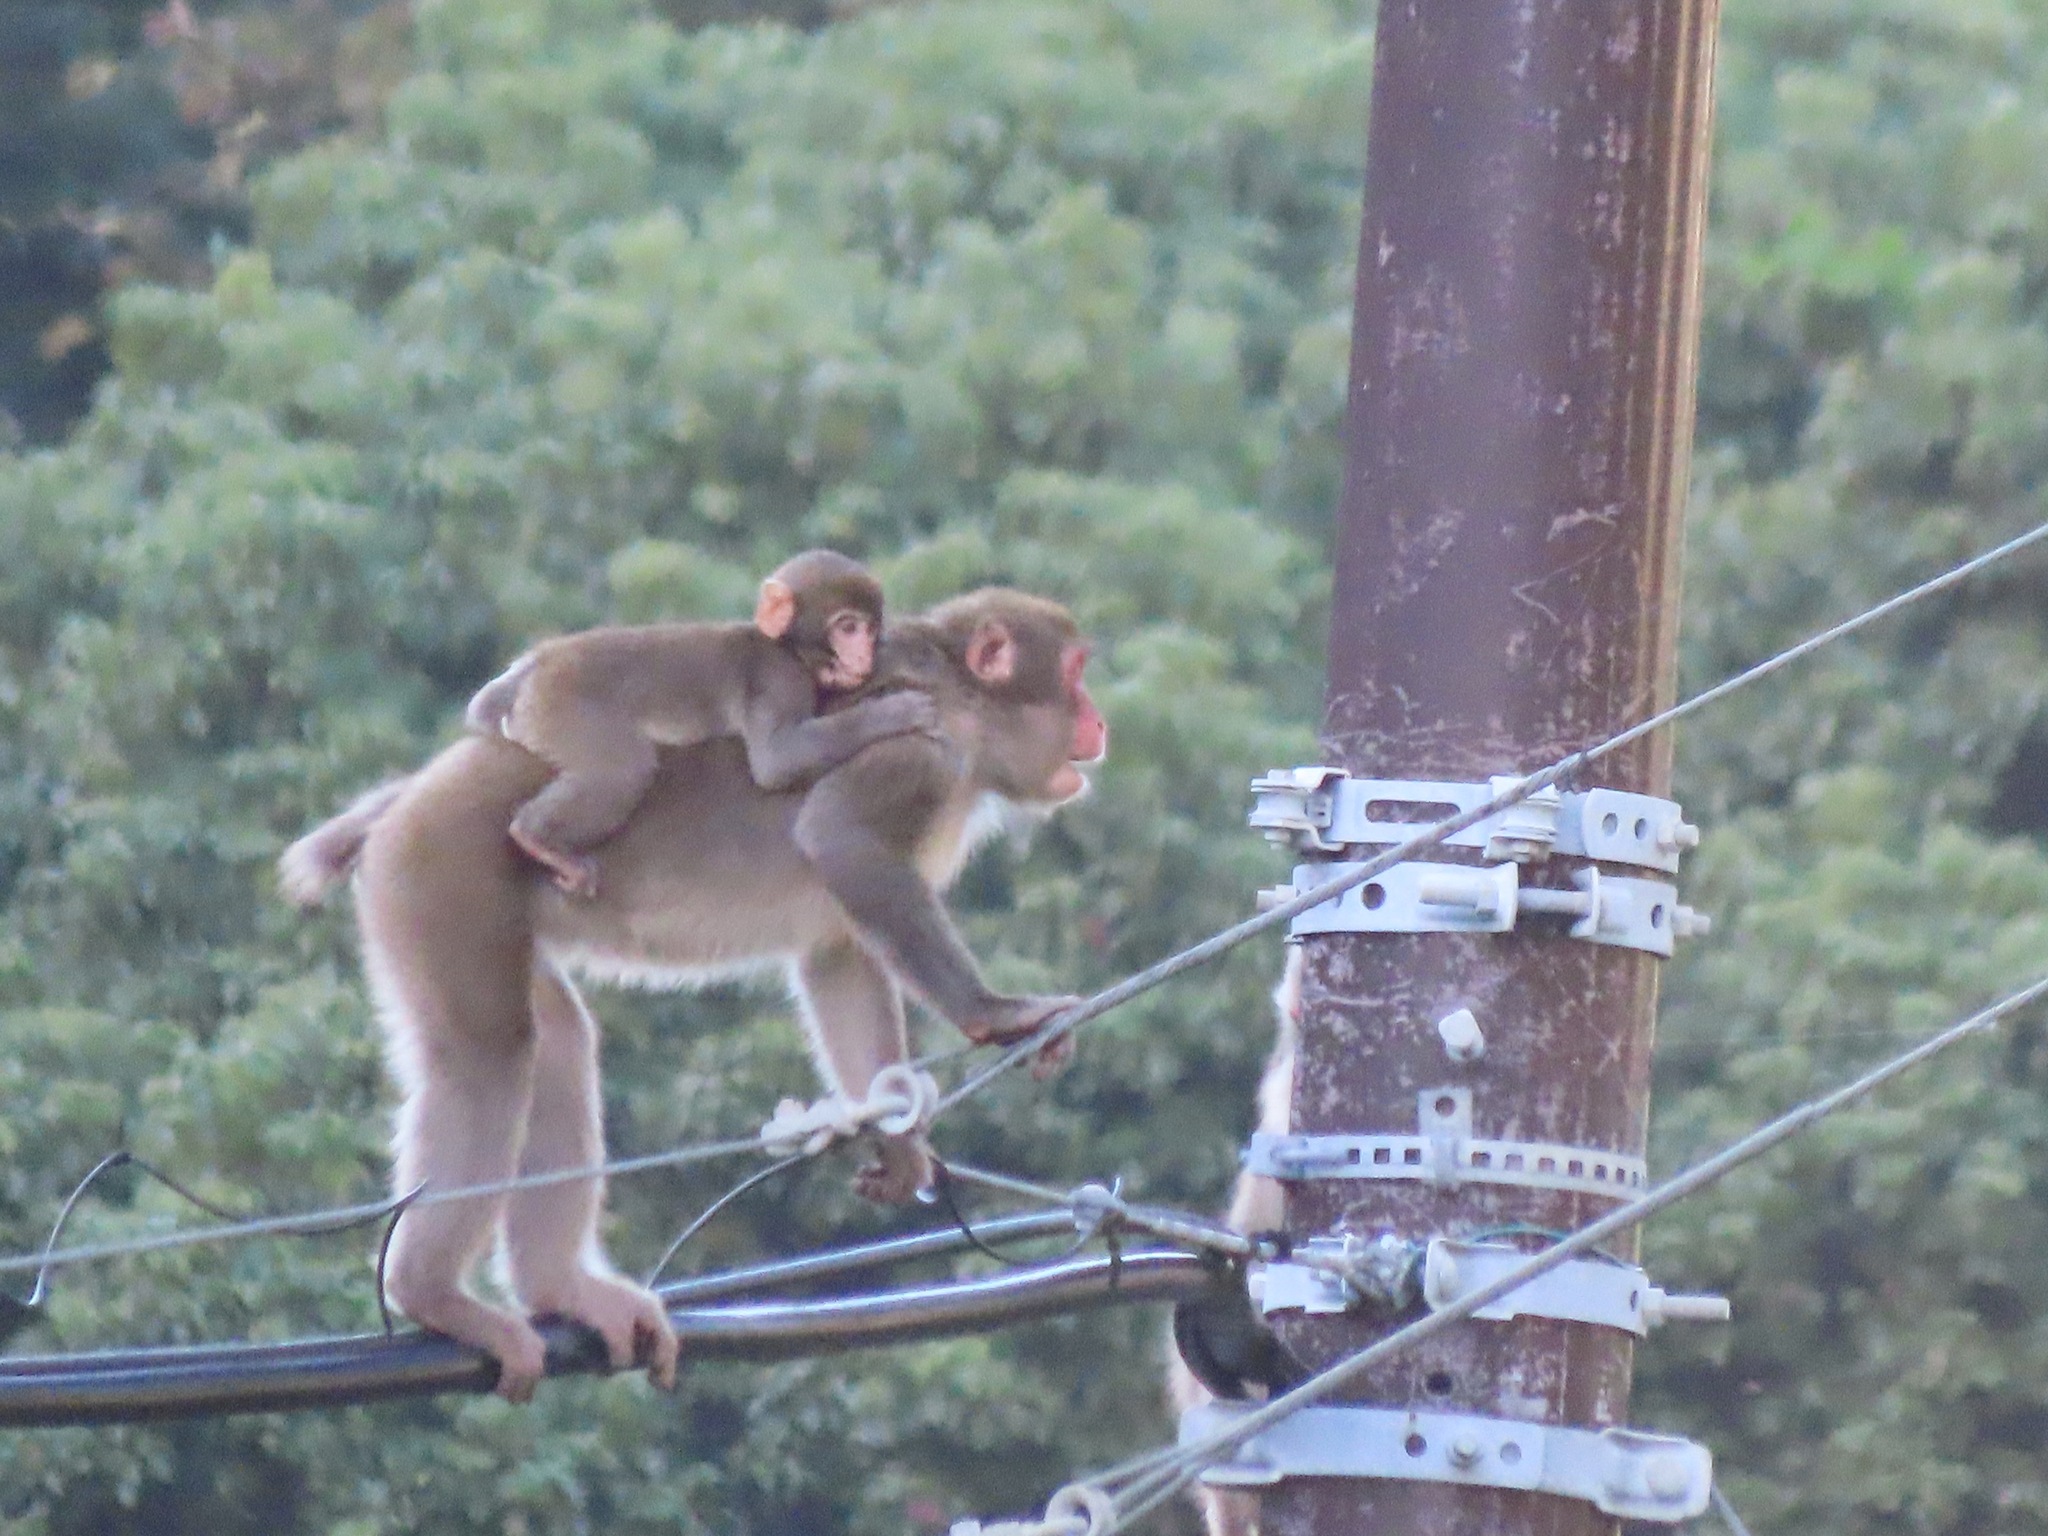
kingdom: Animalia
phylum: Chordata
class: Mammalia
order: Primates
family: Cercopithecidae
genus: Macaca
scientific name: Macaca fuscata
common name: Japanese macaque
